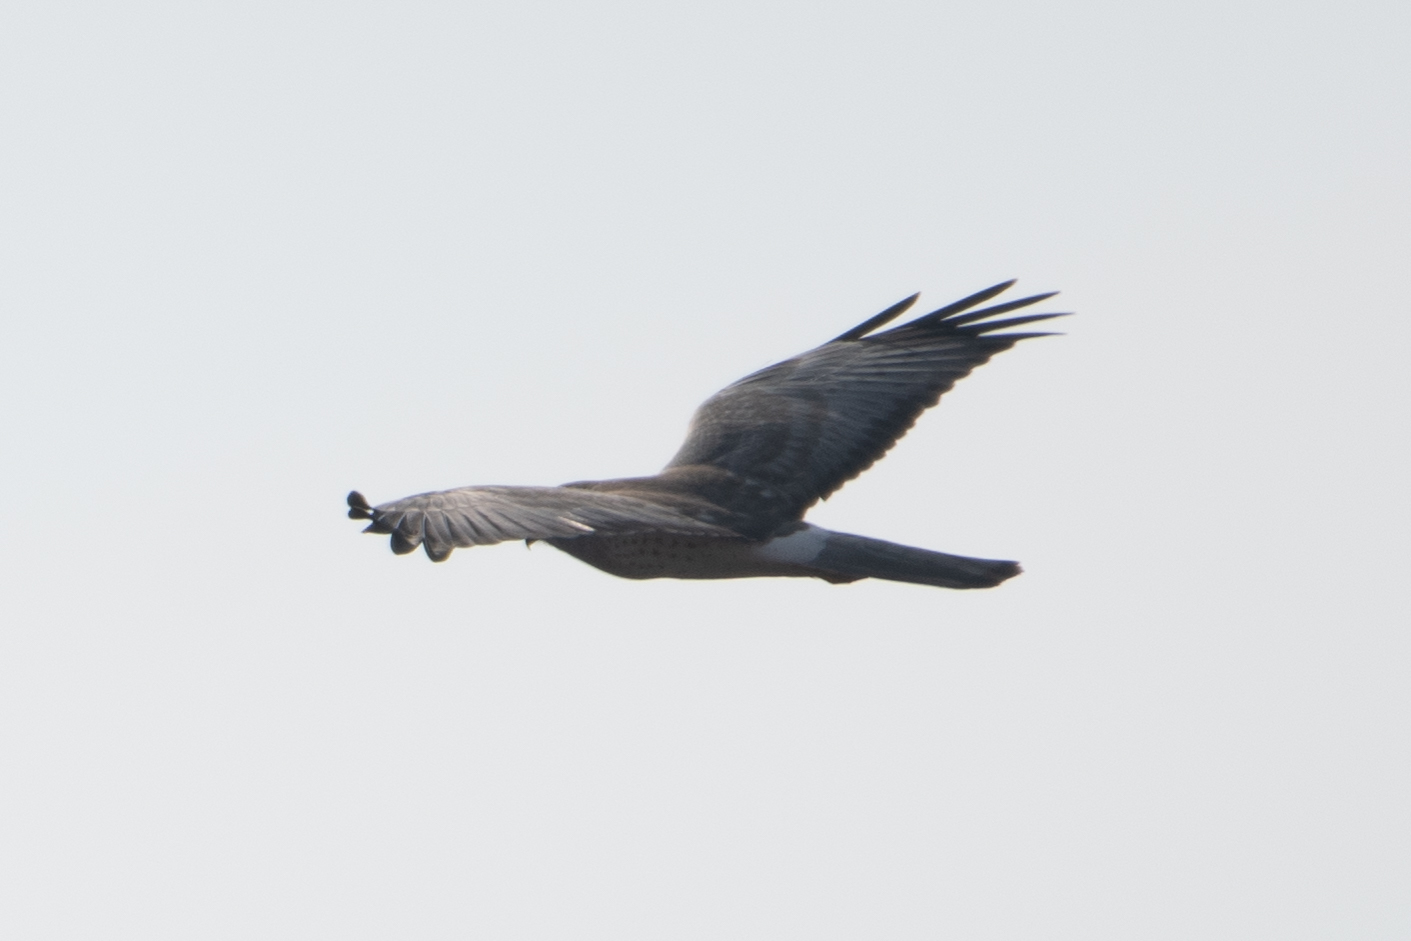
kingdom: Animalia
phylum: Chordata
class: Aves
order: Accipitriformes
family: Accipitridae
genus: Circus
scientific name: Circus cyaneus
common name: Hen harrier
